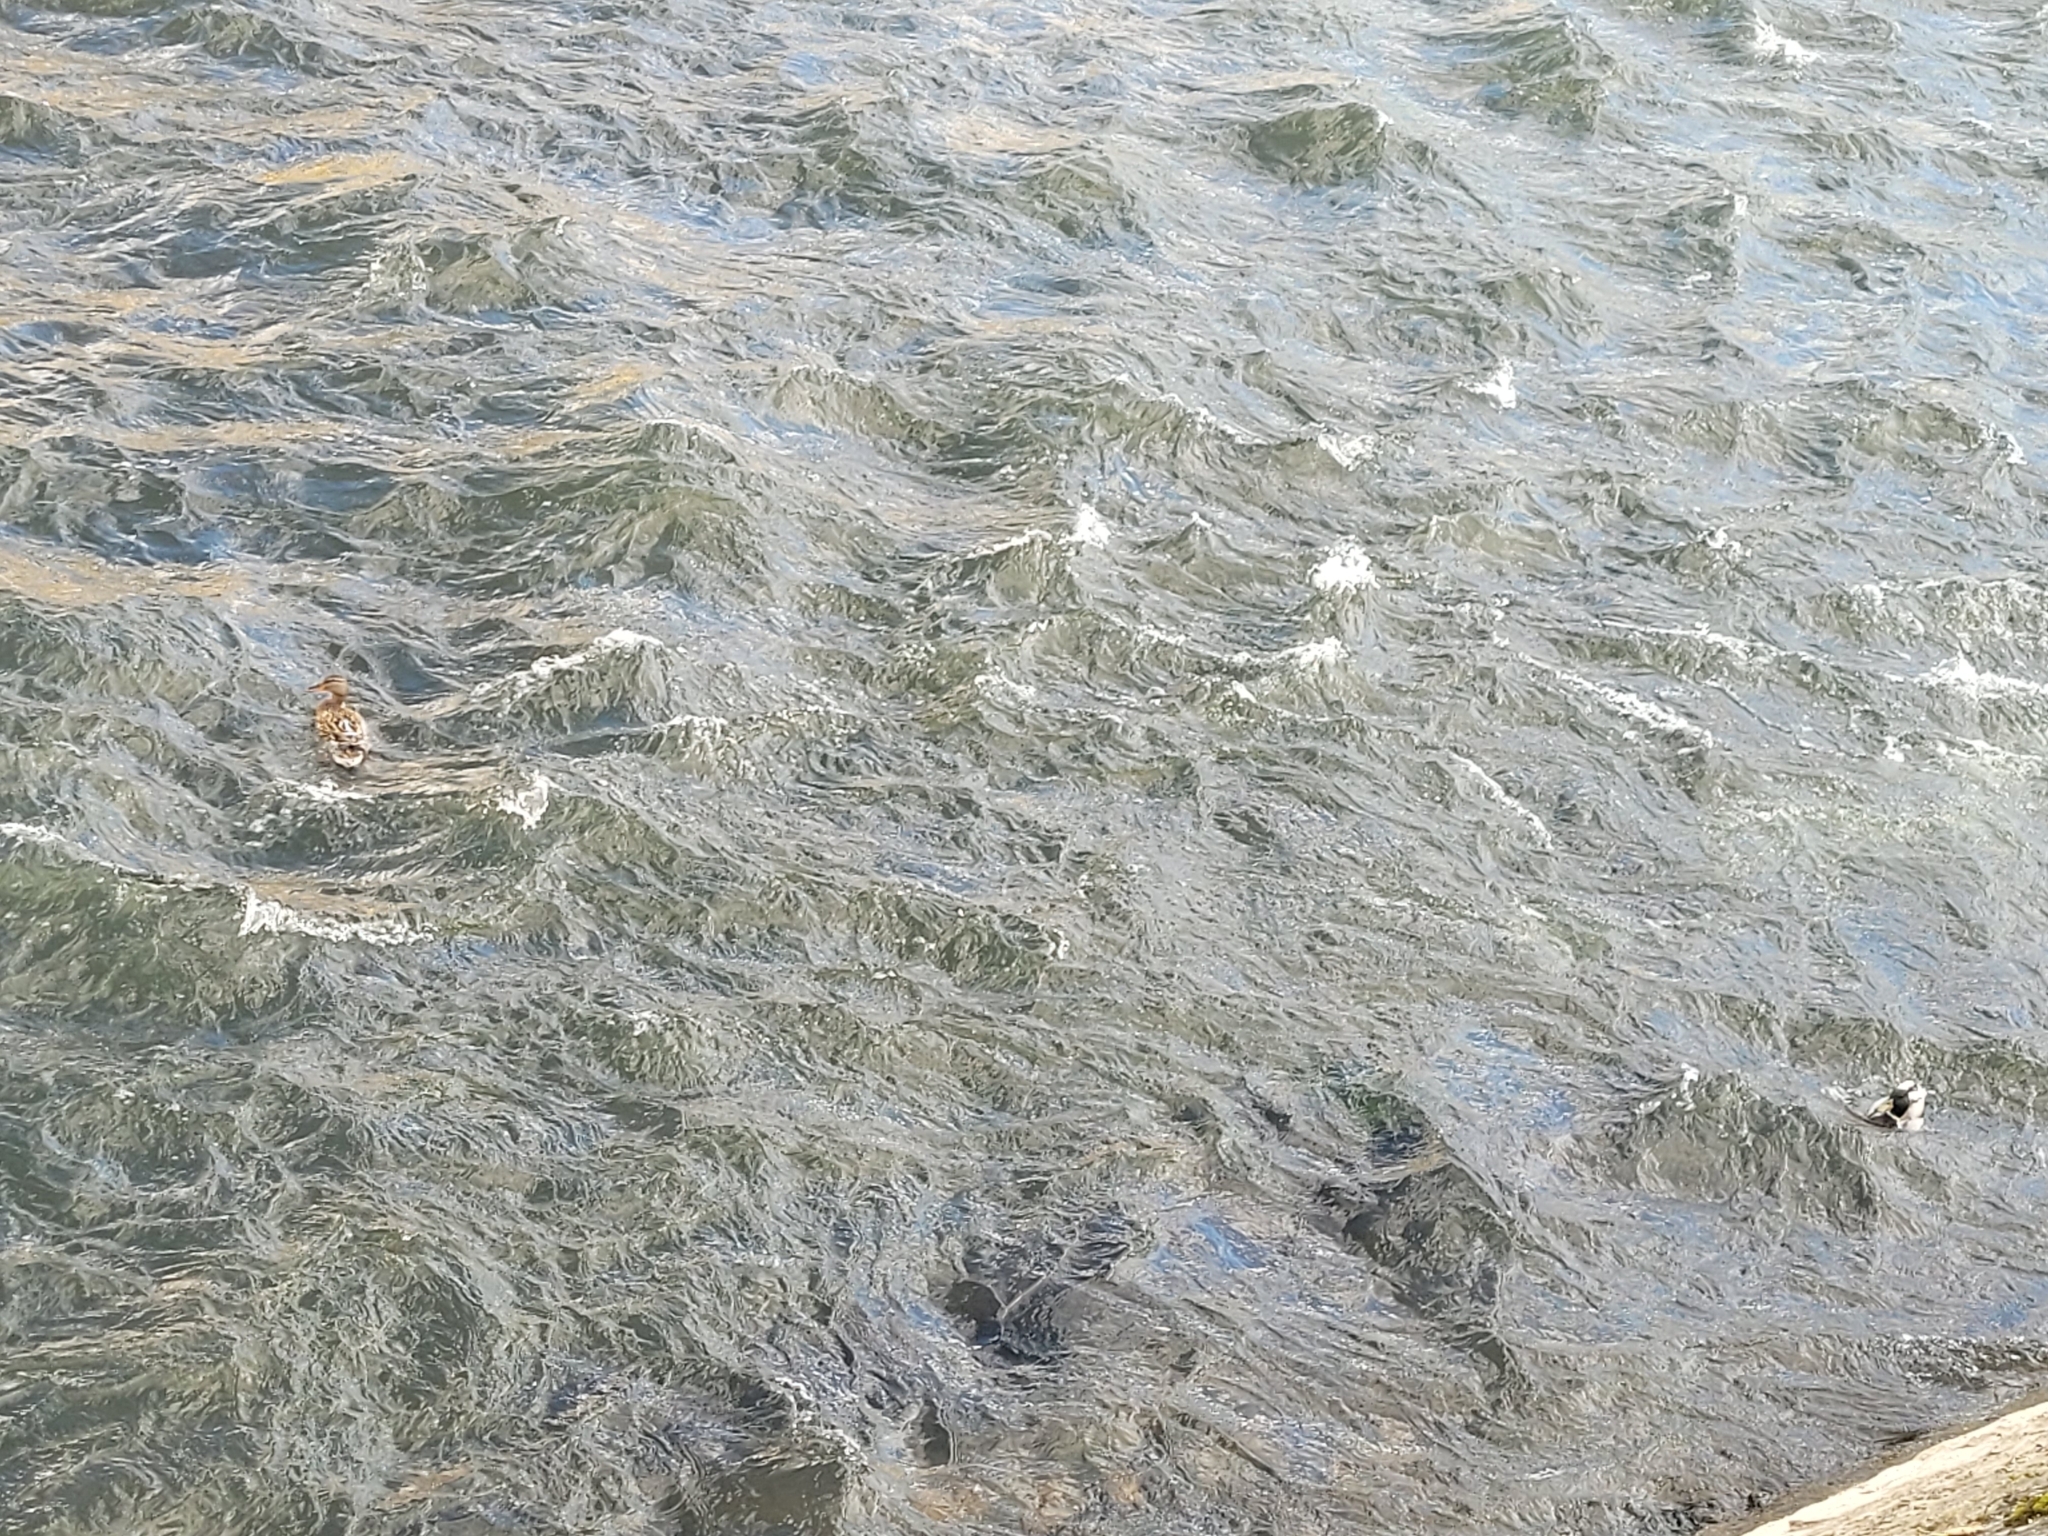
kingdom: Animalia
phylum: Chordata
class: Aves
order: Anseriformes
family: Anatidae
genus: Anas
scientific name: Anas platyrhynchos
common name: Mallard
